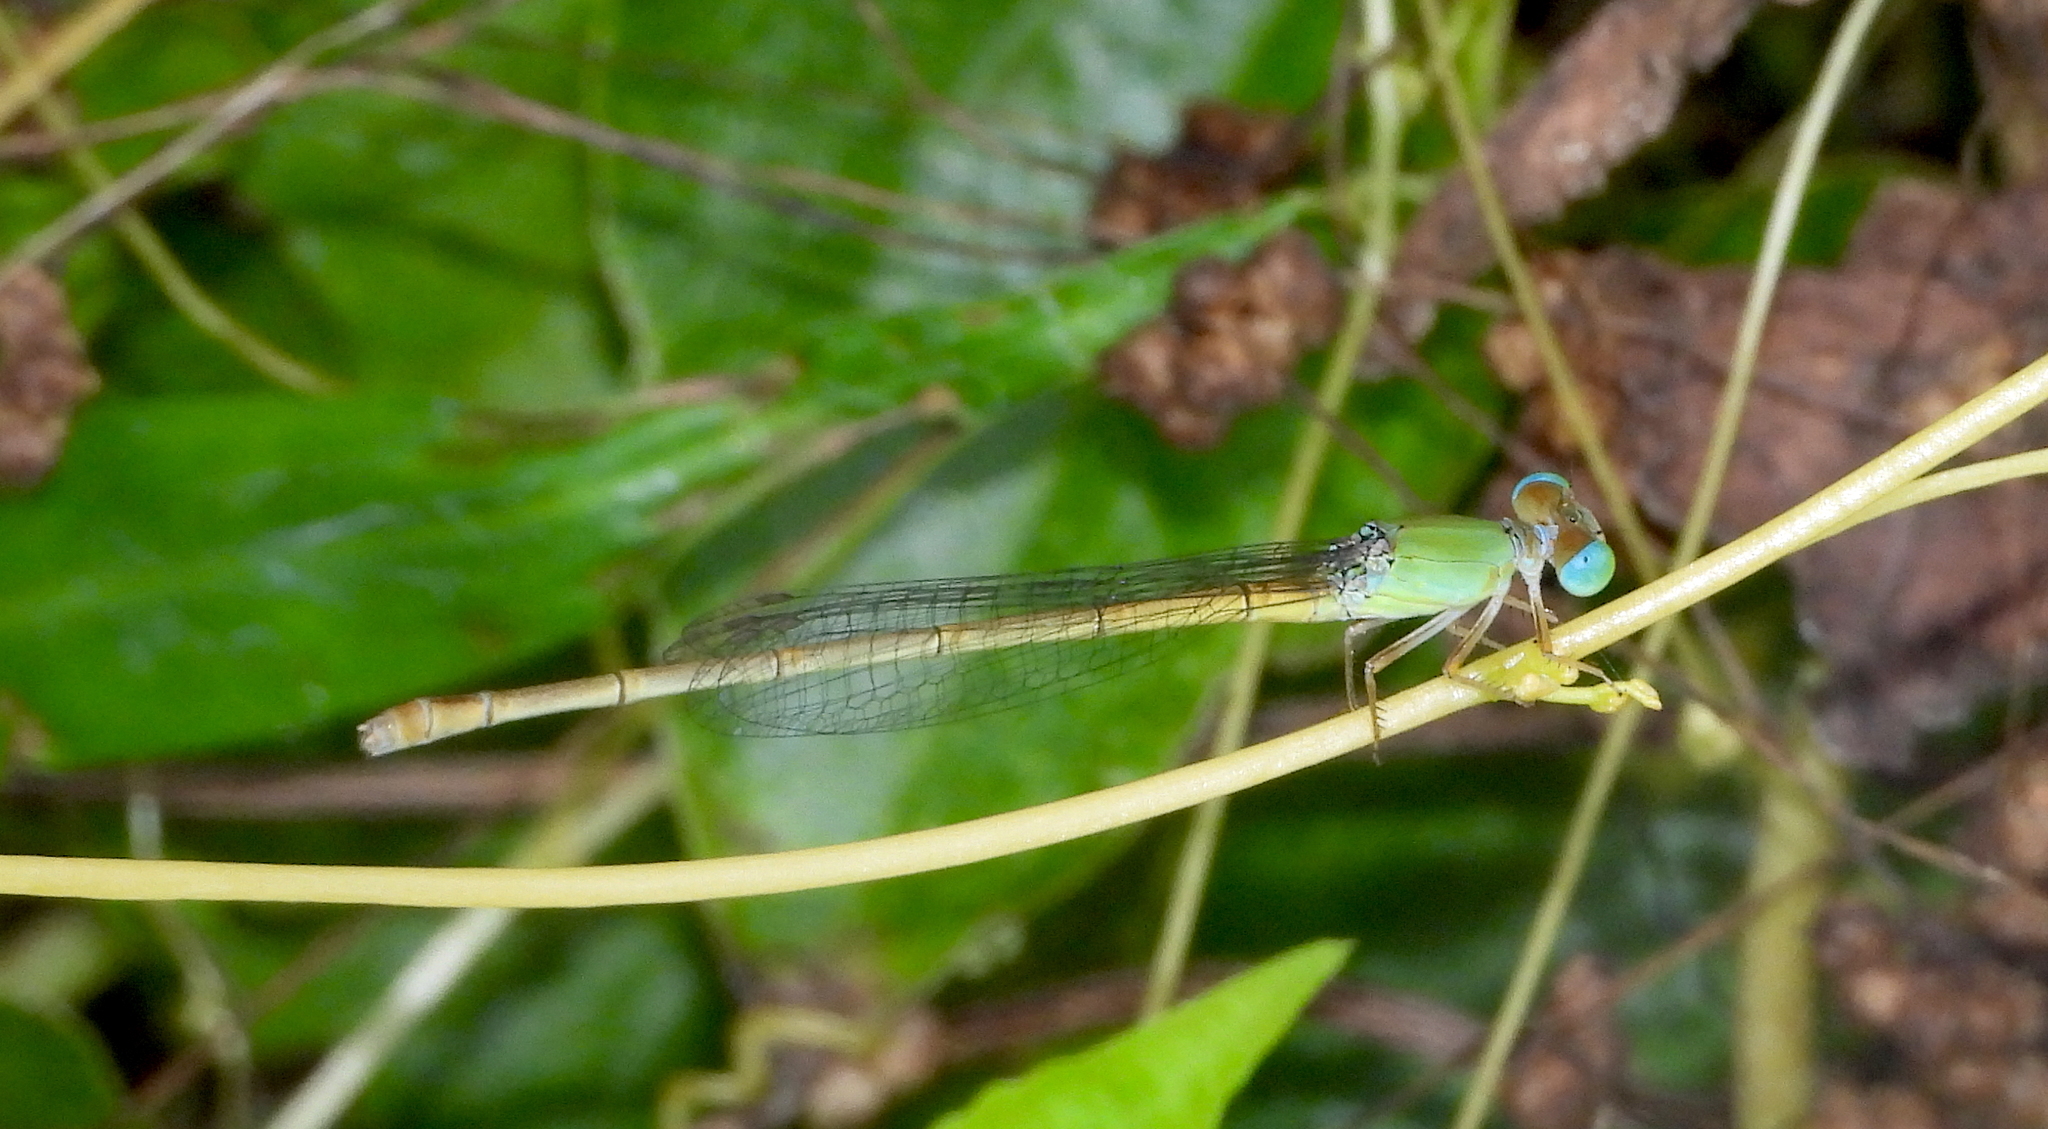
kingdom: Animalia
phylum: Arthropoda
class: Insecta
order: Odonata
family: Coenagrionidae
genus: Ceriagrion
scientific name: Ceriagrion coromandelianum
